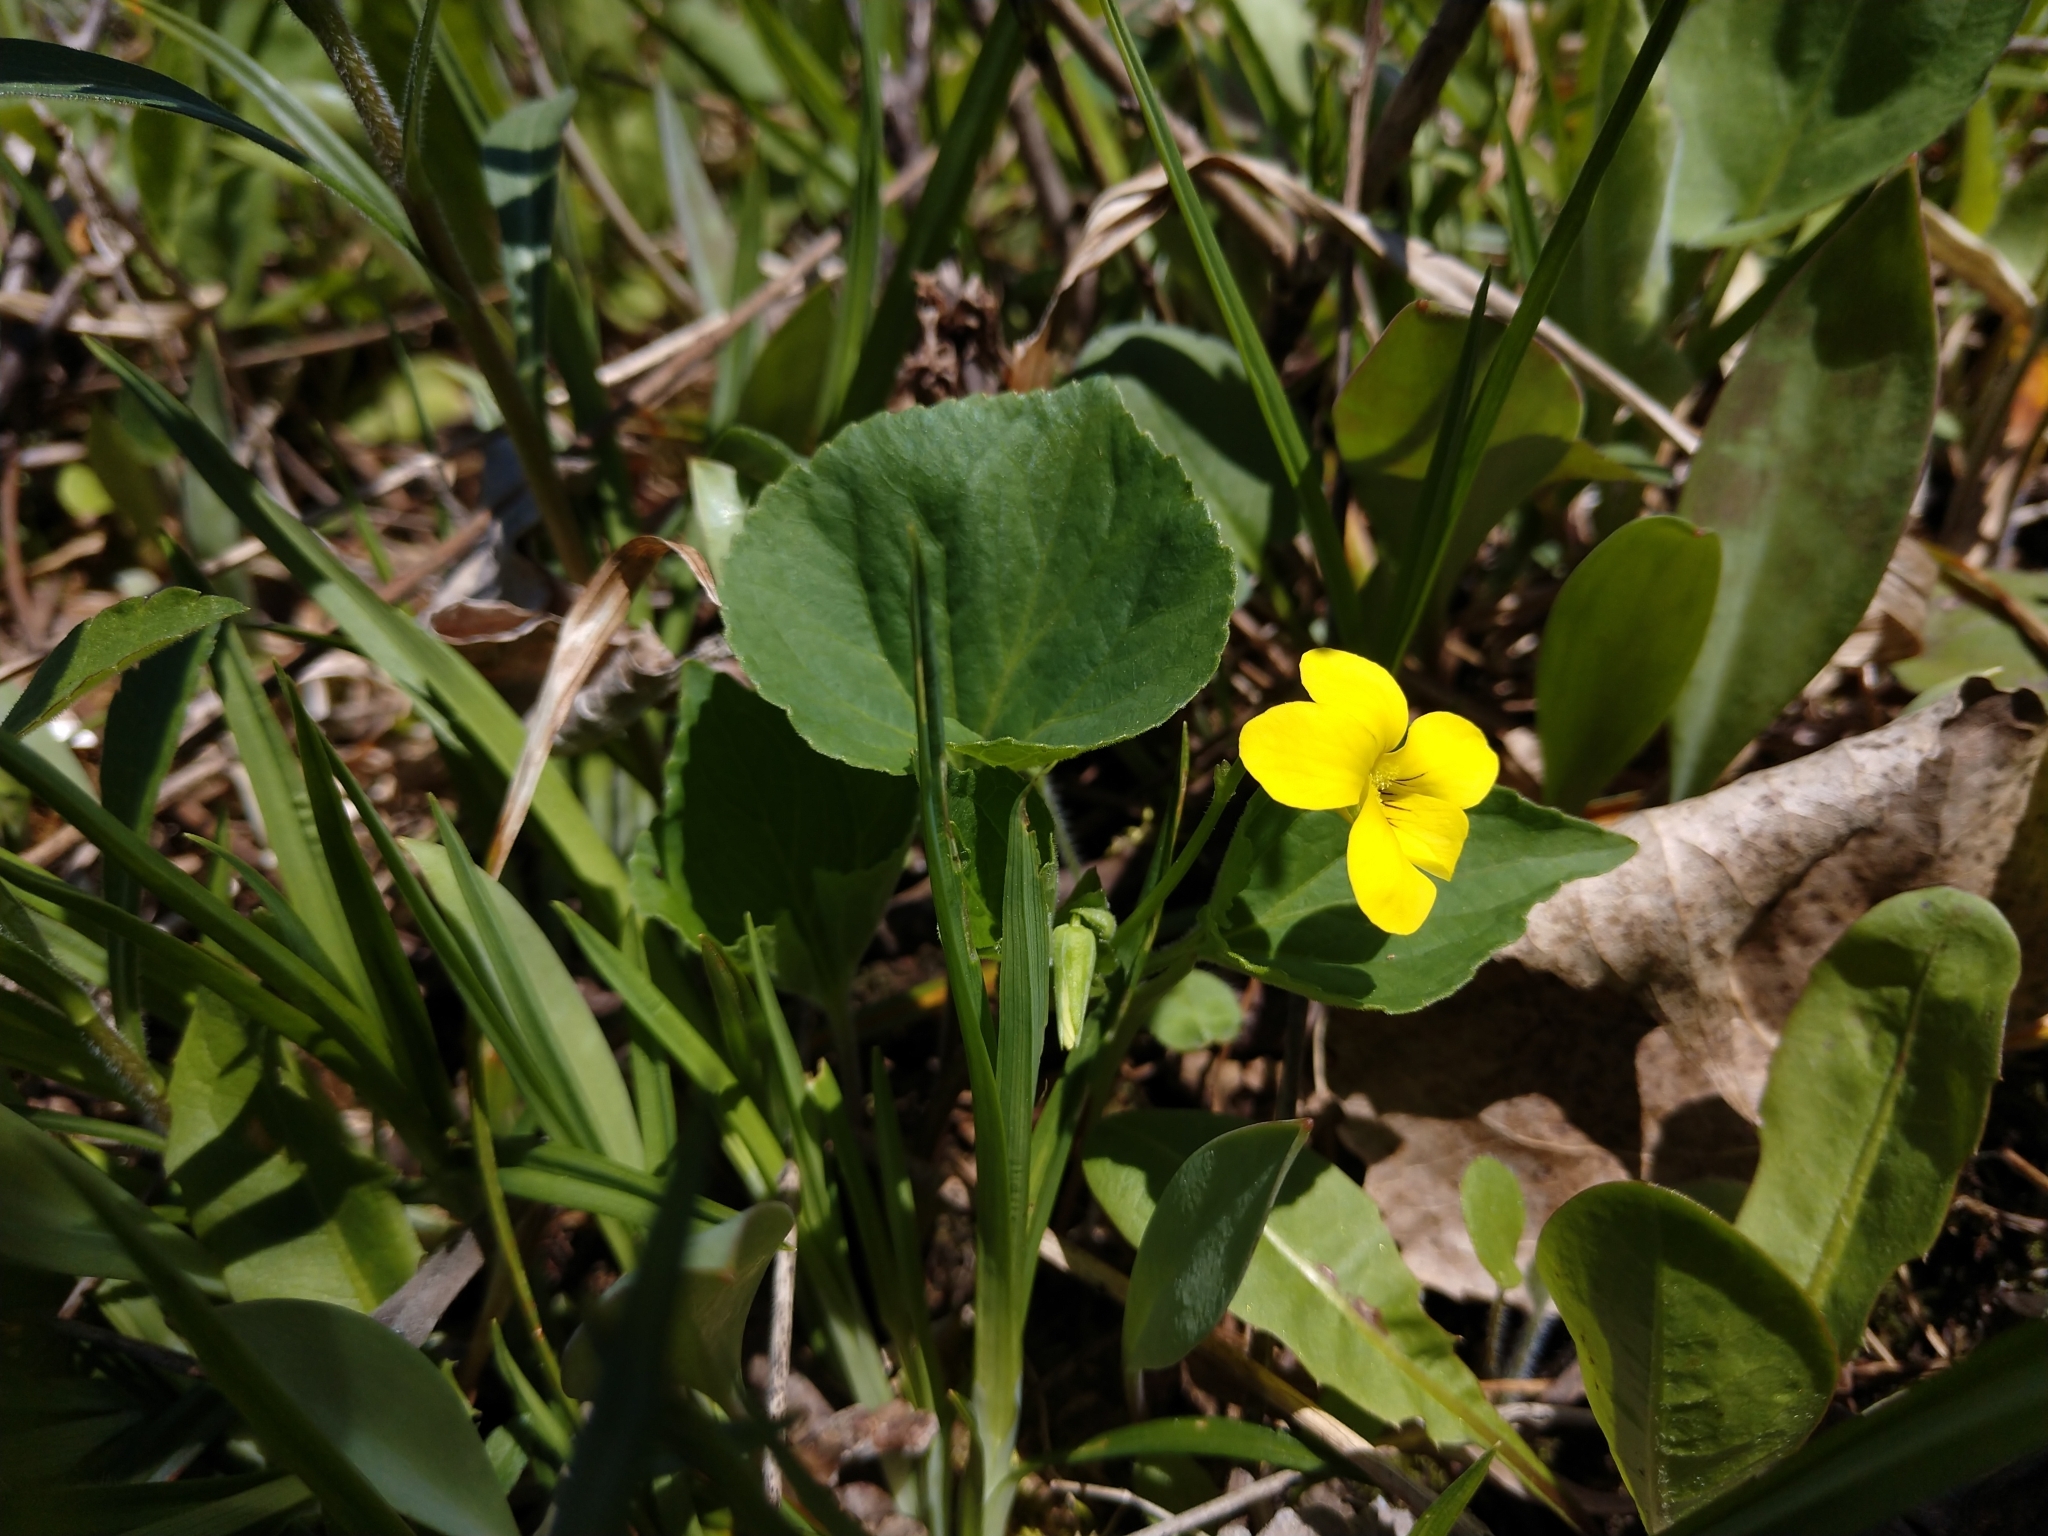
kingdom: Plantae
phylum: Tracheophyta
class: Magnoliopsida
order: Malpighiales
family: Violaceae
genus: Viola
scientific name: Viola eriocarpa
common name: Smooth yellow violet
